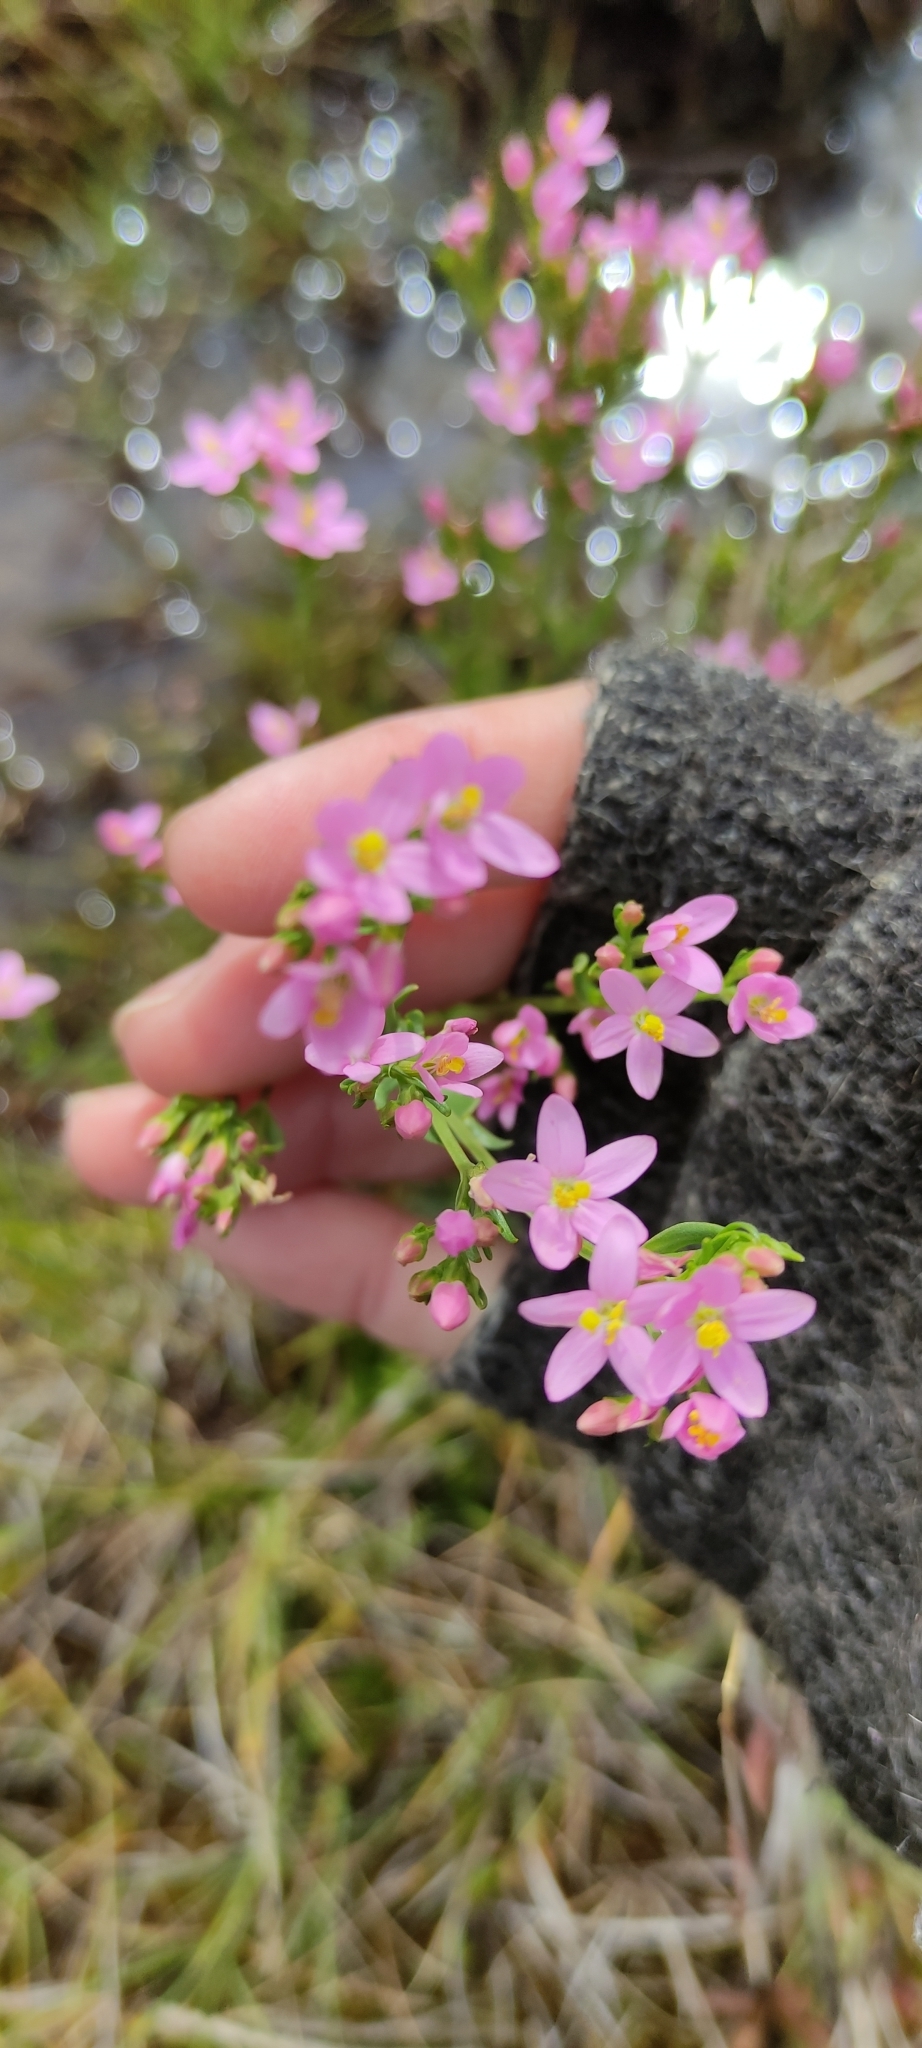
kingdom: Plantae
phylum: Tracheophyta
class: Magnoliopsida
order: Gentianales
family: Gentianaceae
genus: Centaurium
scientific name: Centaurium erythraea
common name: Common centaury
